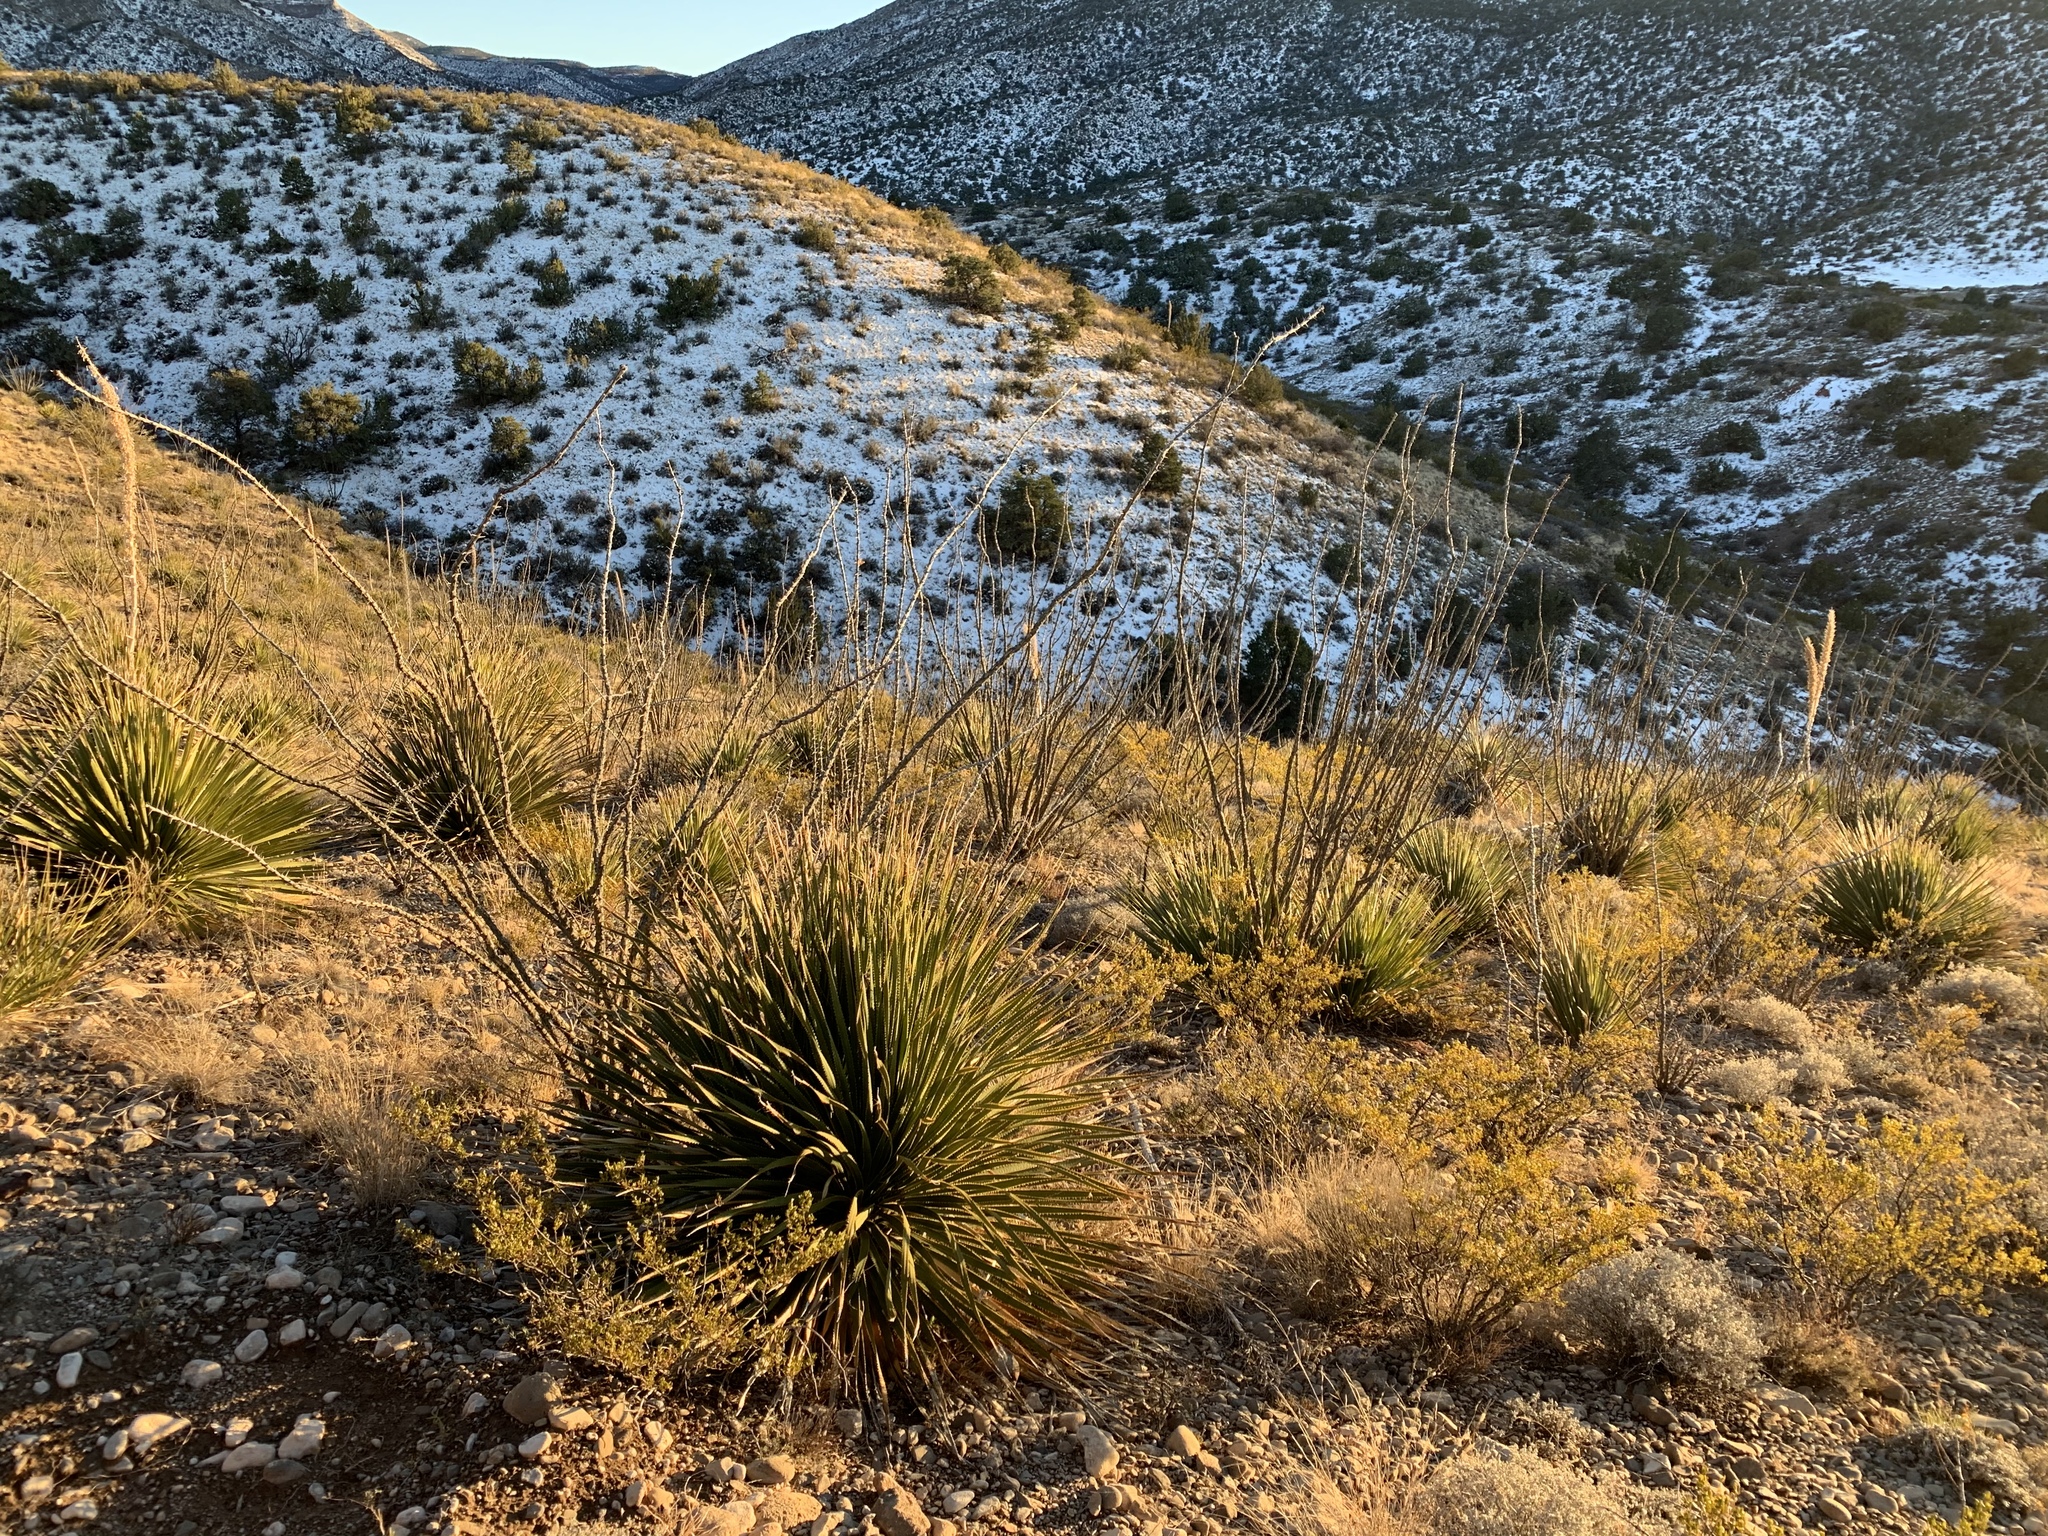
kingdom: Plantae
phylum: Tracheophyta
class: Magnoliopsida
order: Ericales
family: Fouquieriaceae
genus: Fouquieria
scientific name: Fouquieria splendens
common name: Vine-cactus
